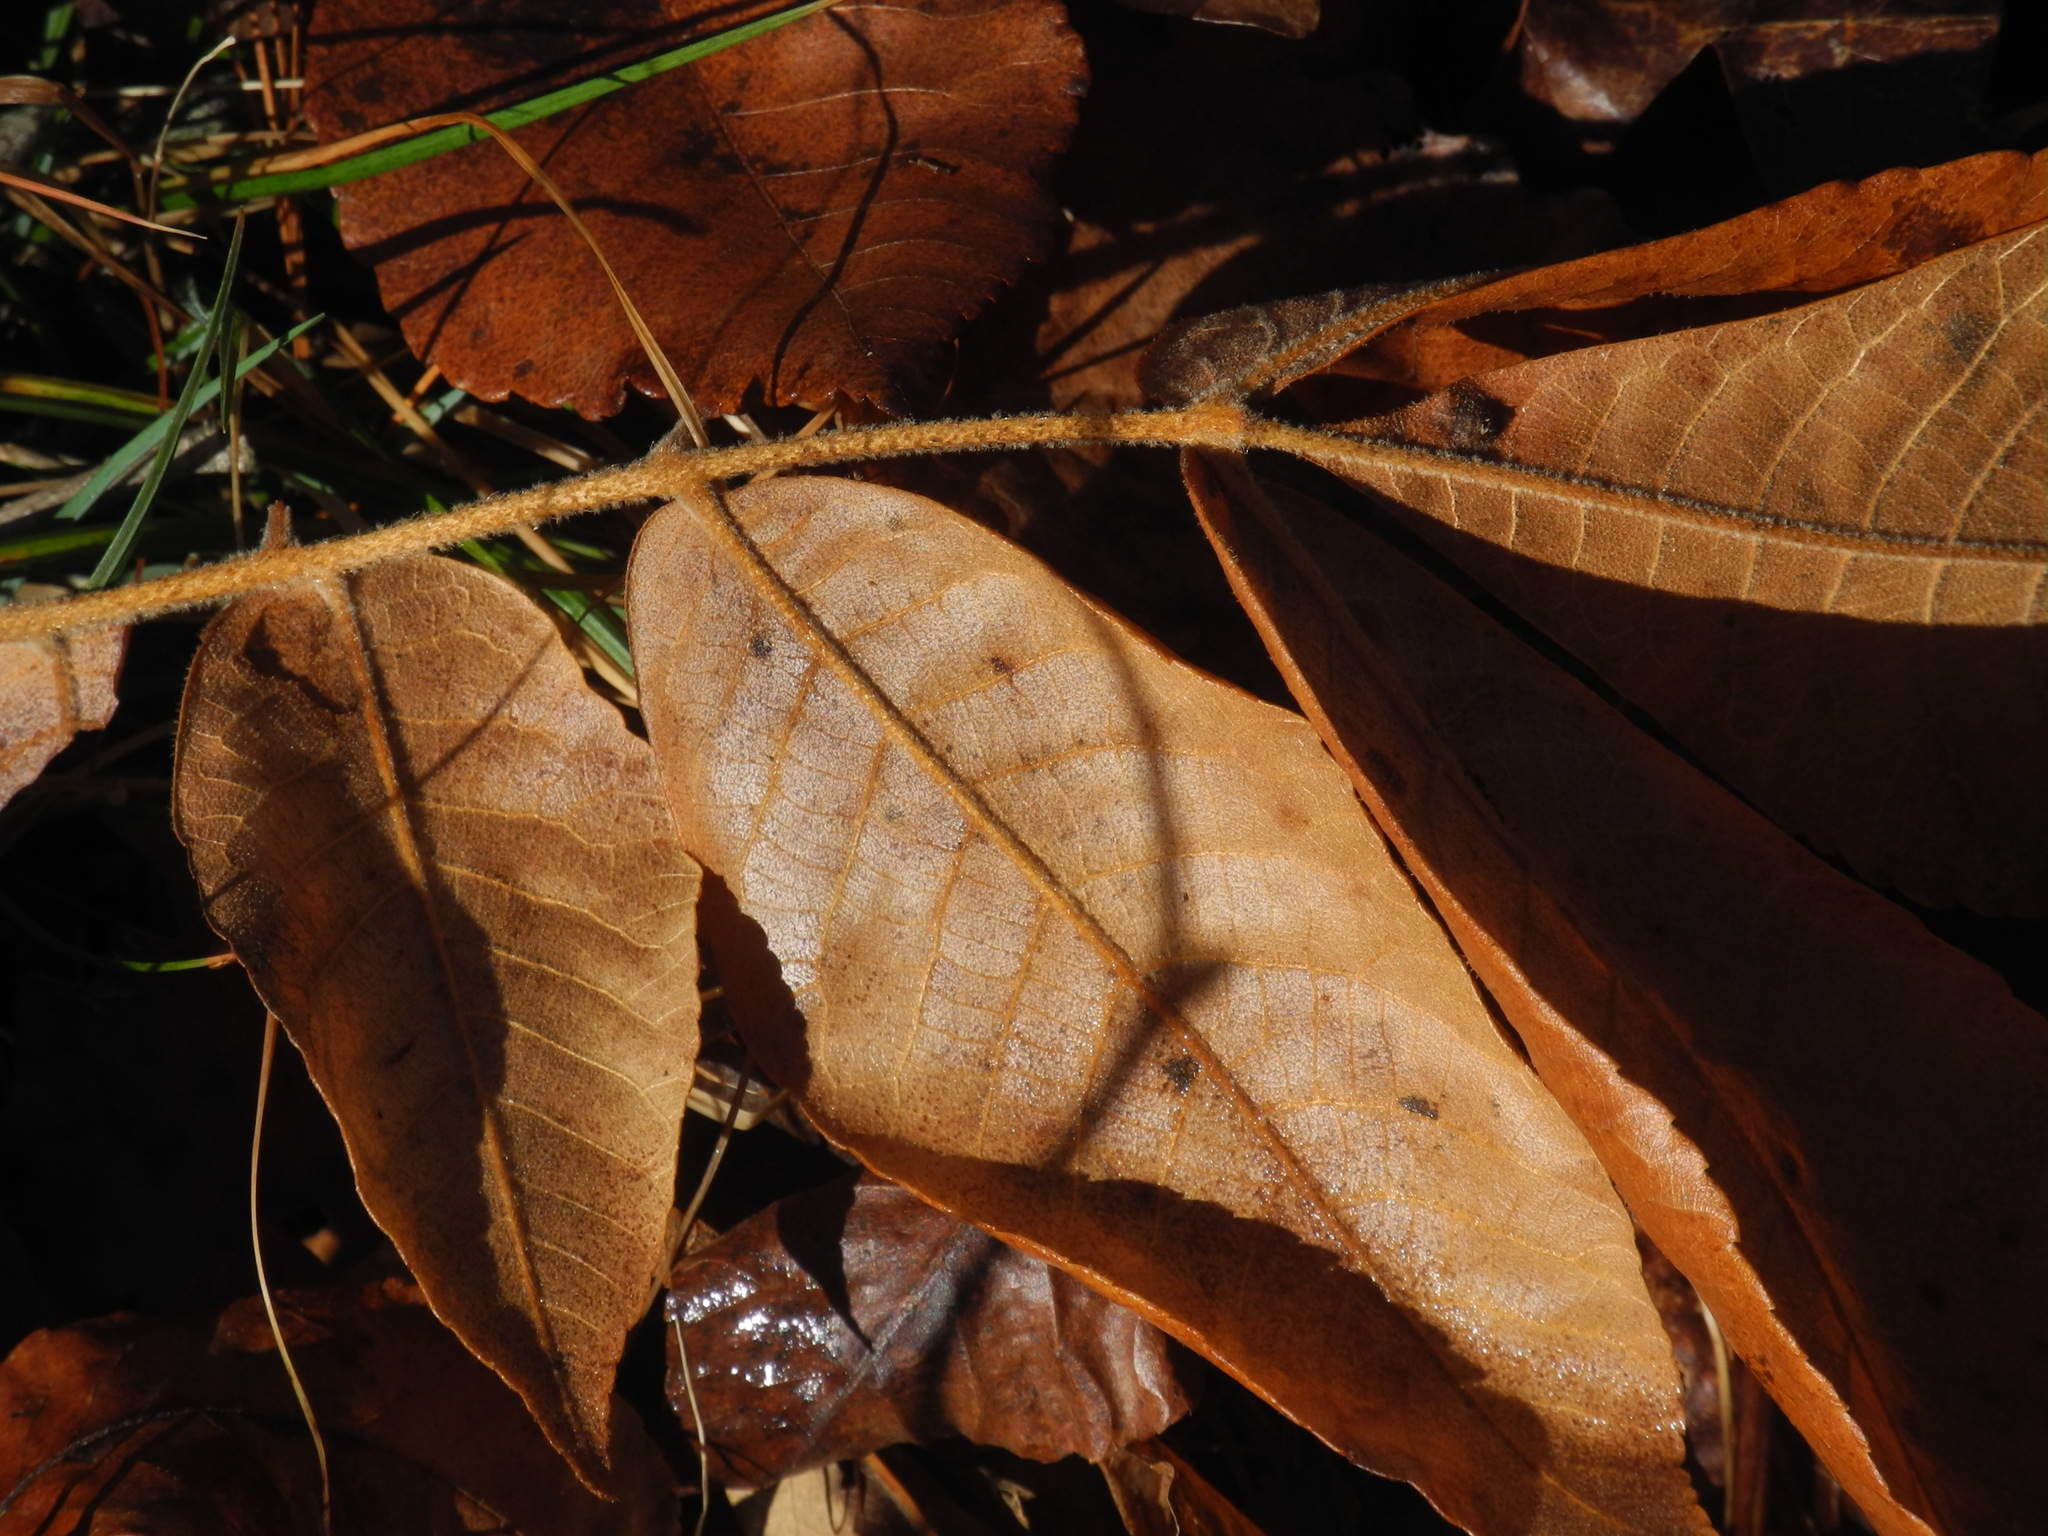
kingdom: Plantae
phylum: Tracheophyta
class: Magnoliopsida
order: Fagales
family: Juglandaceae
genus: Carya
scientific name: Carya alba
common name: Mockernut hickory
